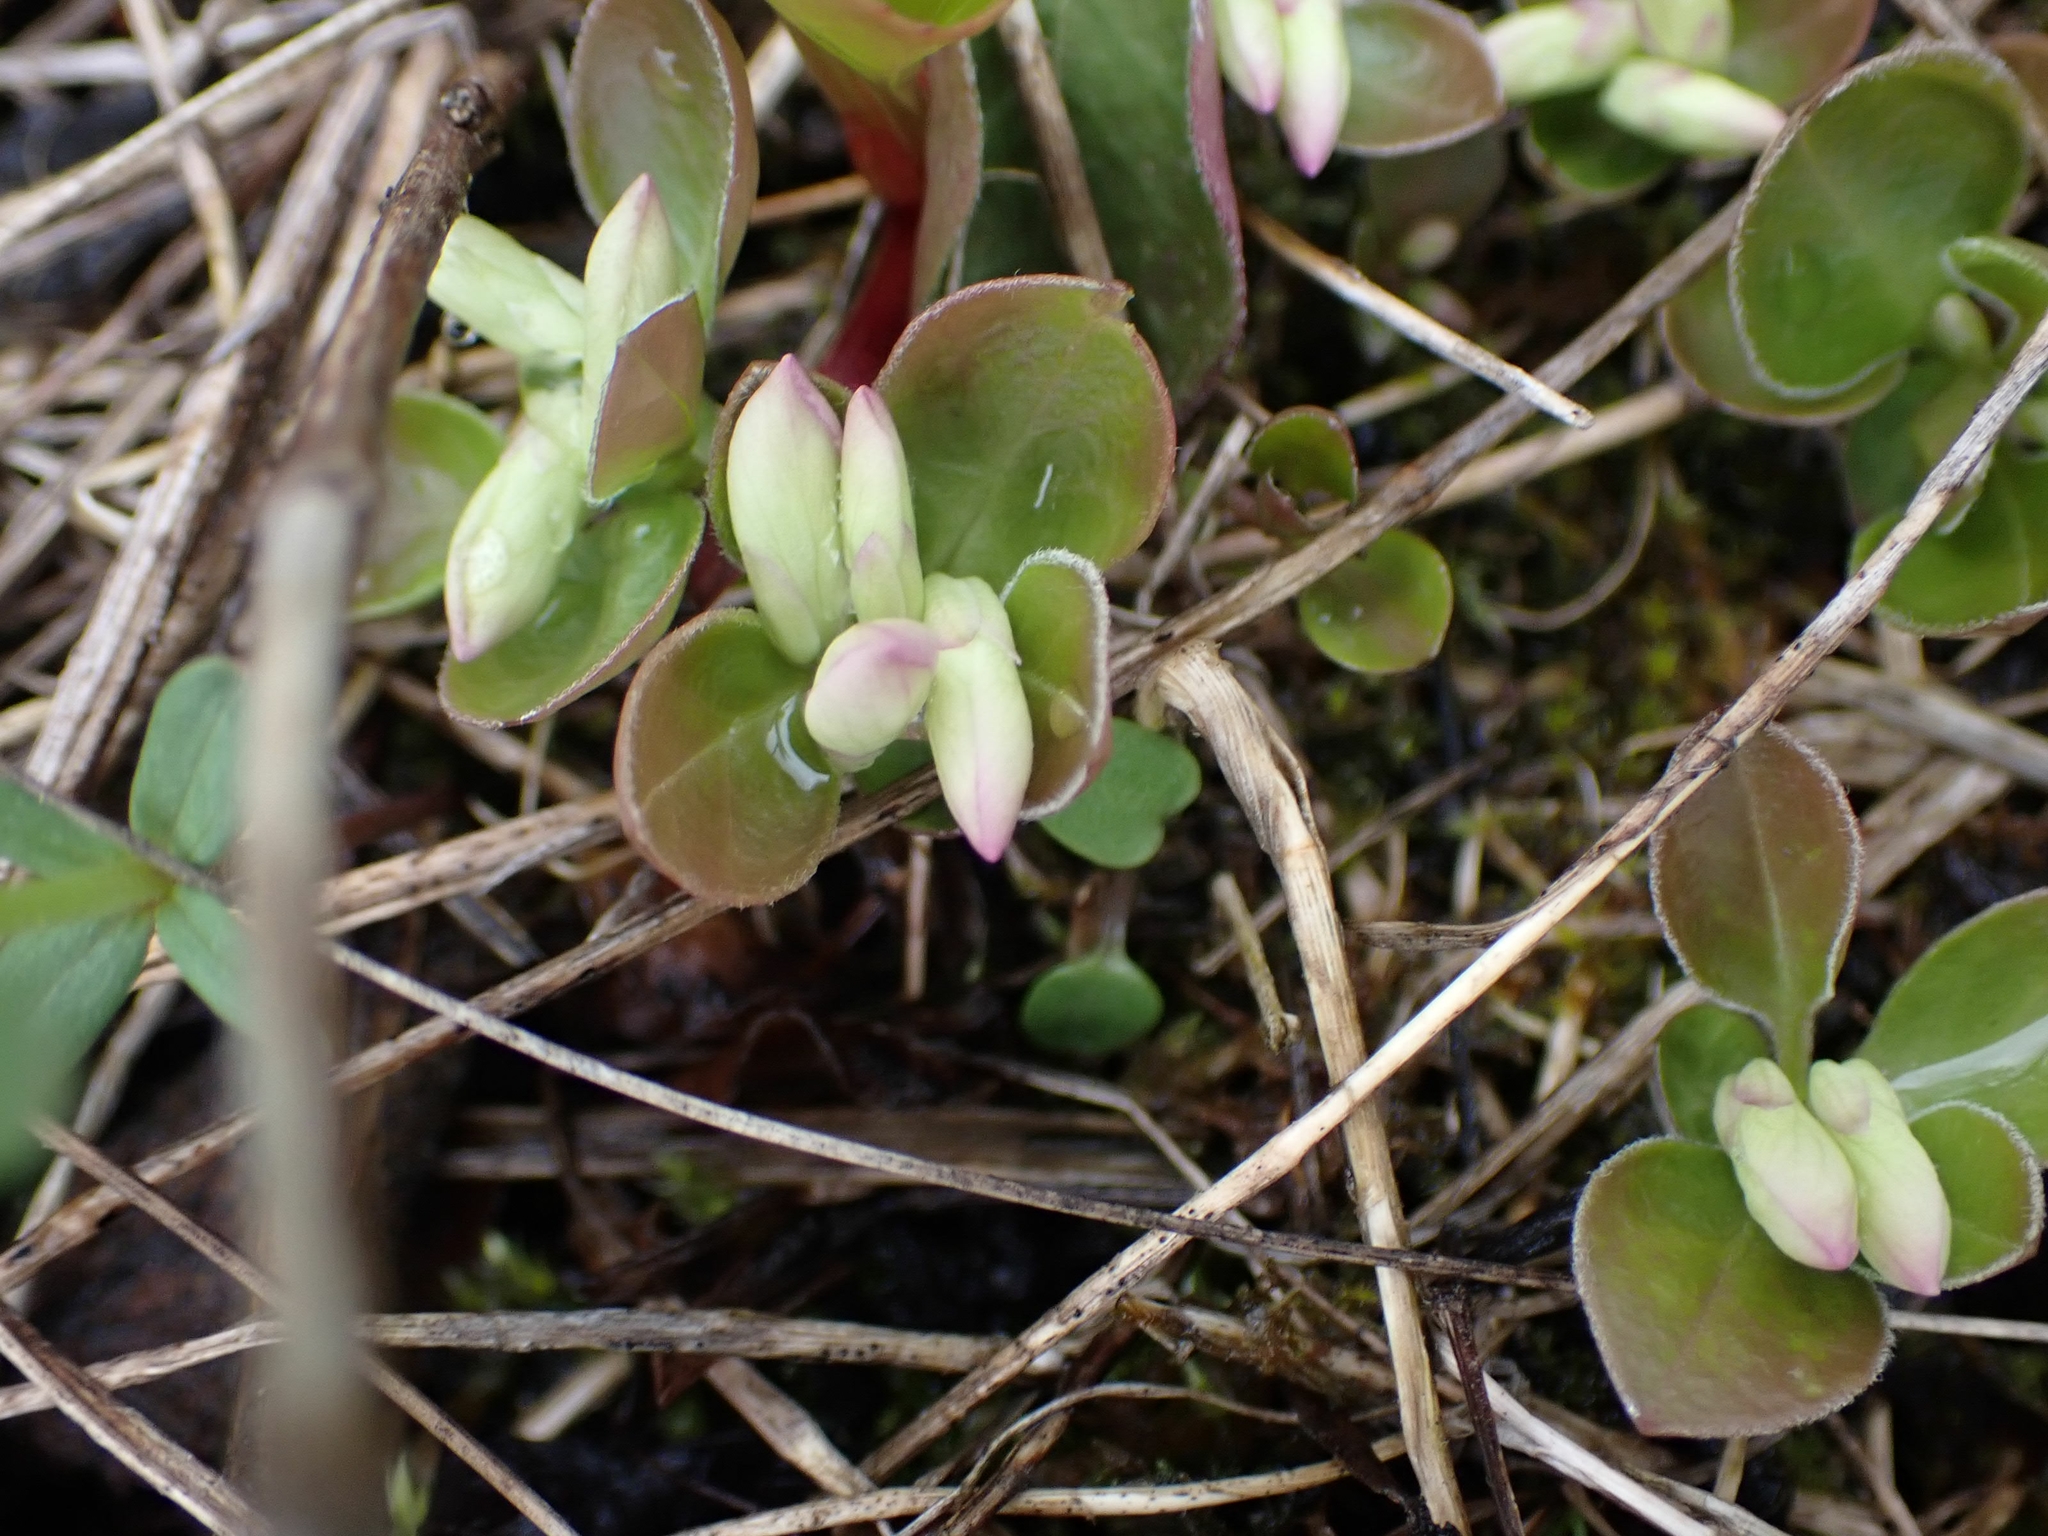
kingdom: Plantae
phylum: Tracheophyta
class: Magnoliopsida
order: Fabales
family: Polygalaceae
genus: Polygaloides
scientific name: Polygaloides paucifolia
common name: Bird-on-the-wing
